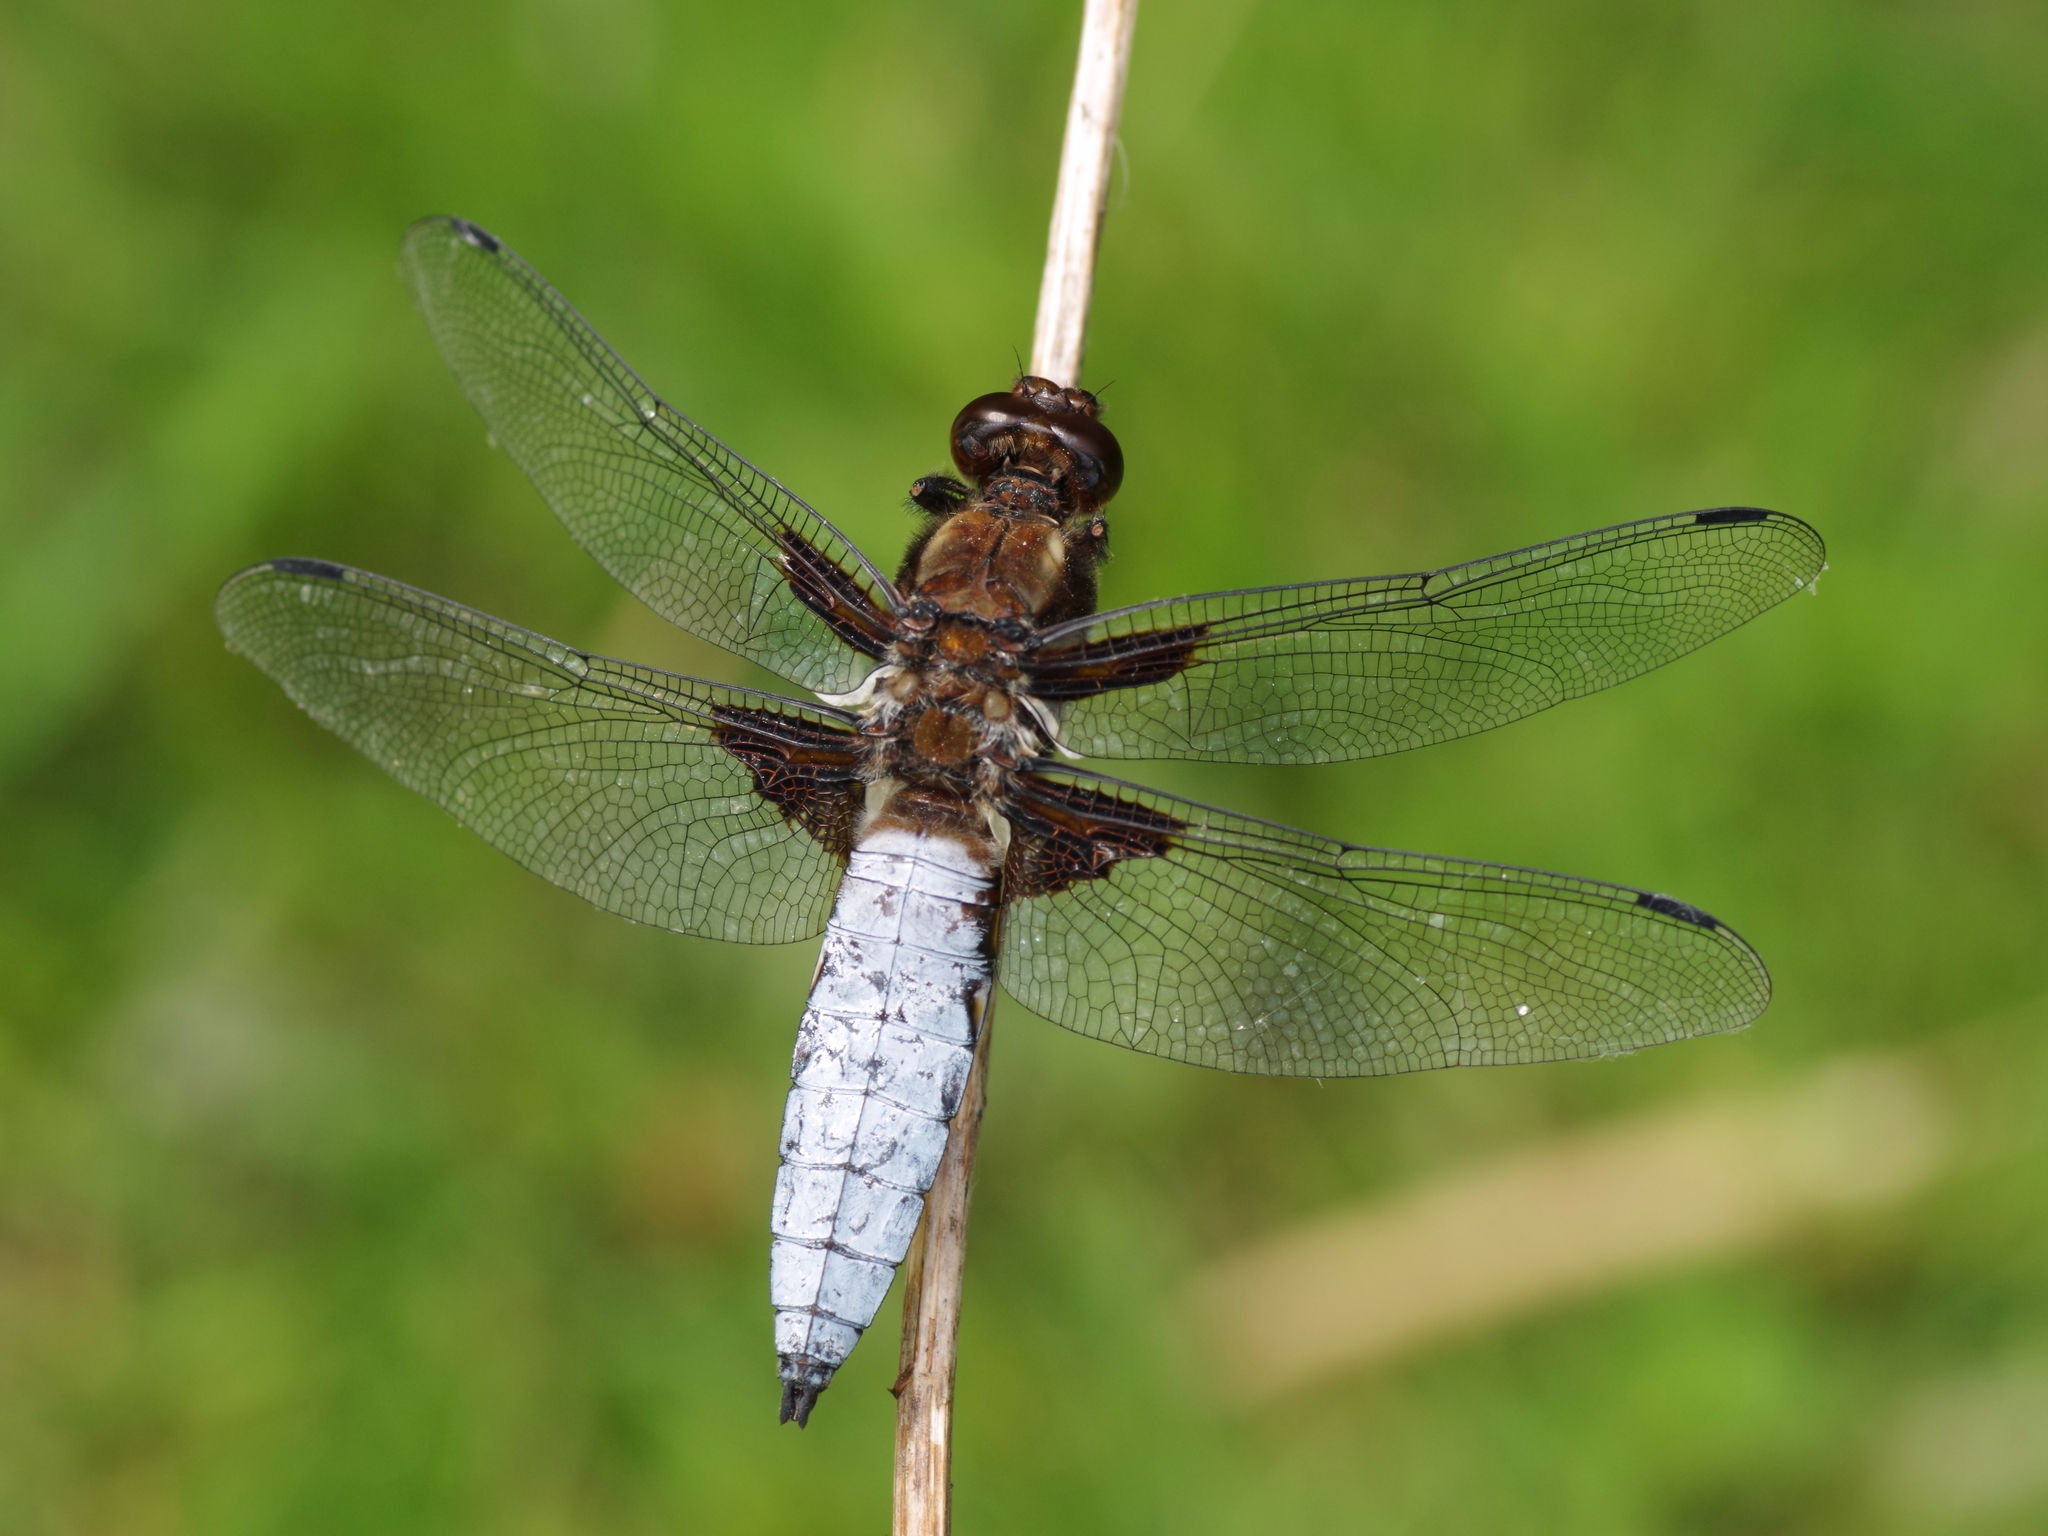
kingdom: Animalia
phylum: Arthropoda
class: Insecta
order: Odonata
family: Libellulidae
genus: Libellula
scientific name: Libellula depressa
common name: Broad-bodied chaser
